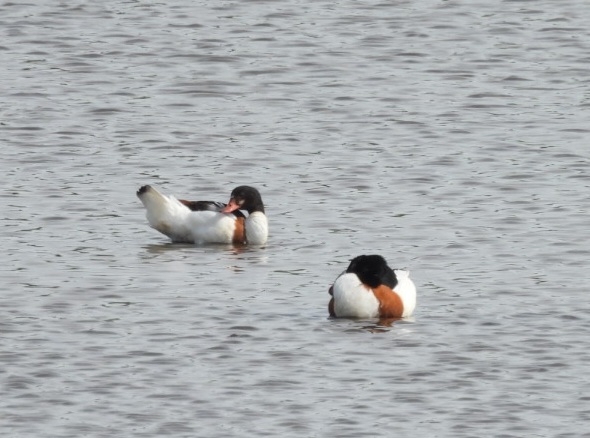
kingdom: Animalia
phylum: Chordata
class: Aves
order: Anseriformes
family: Anatidae
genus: Tadorna
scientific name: Tadorna tadorna
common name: Common shelduck
